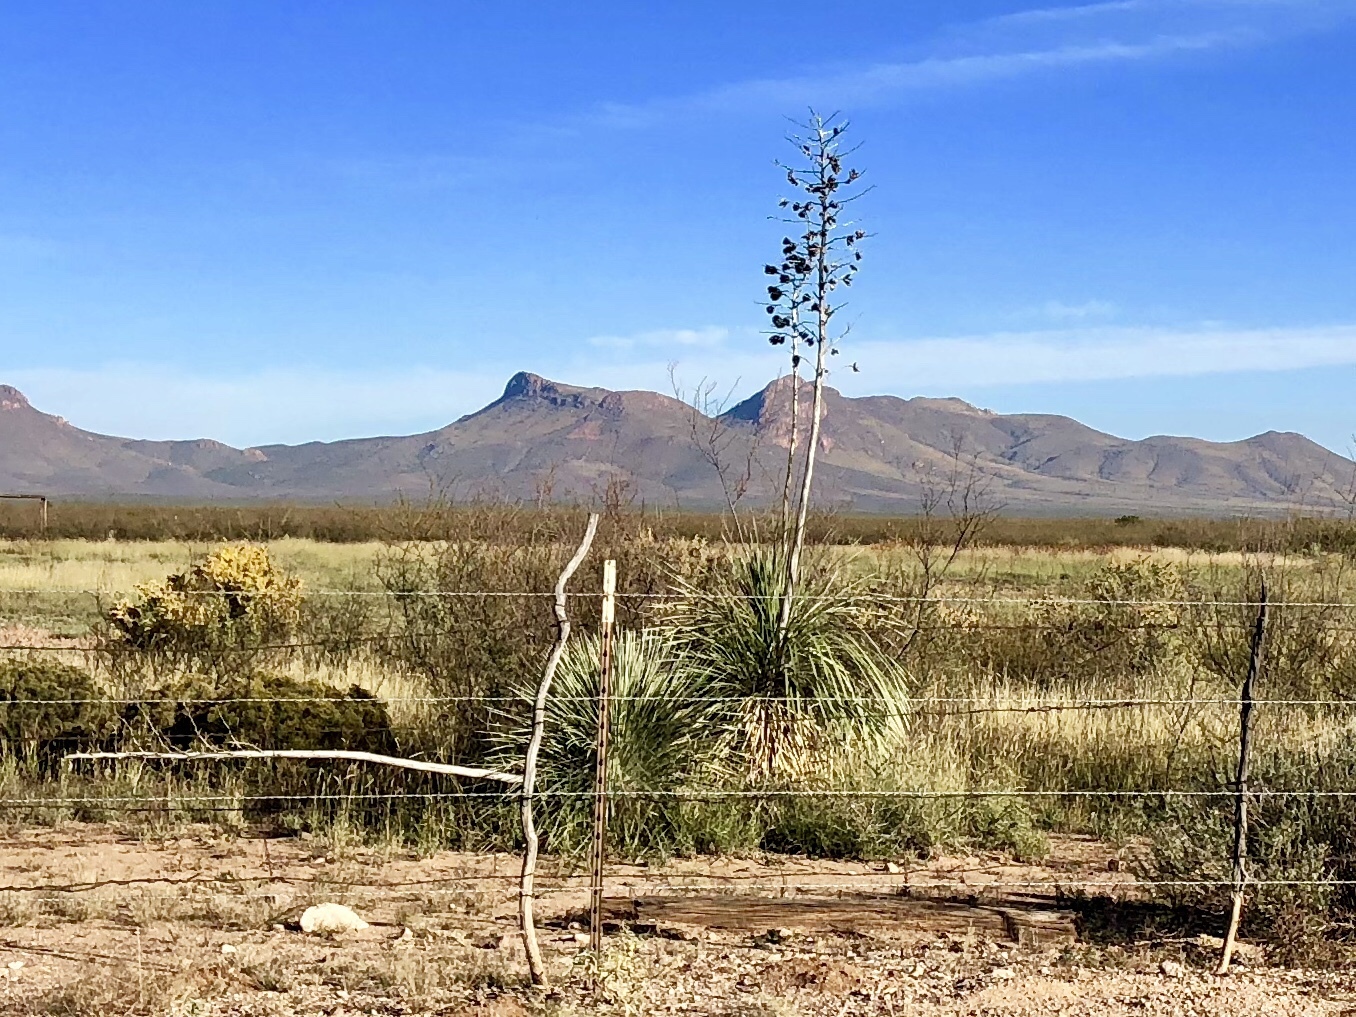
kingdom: Plantae
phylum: Tracheophyta
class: Liliopsida
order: Asparagales
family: Asparagaceae
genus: Yucca
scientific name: Yucca elata
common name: Palmella
